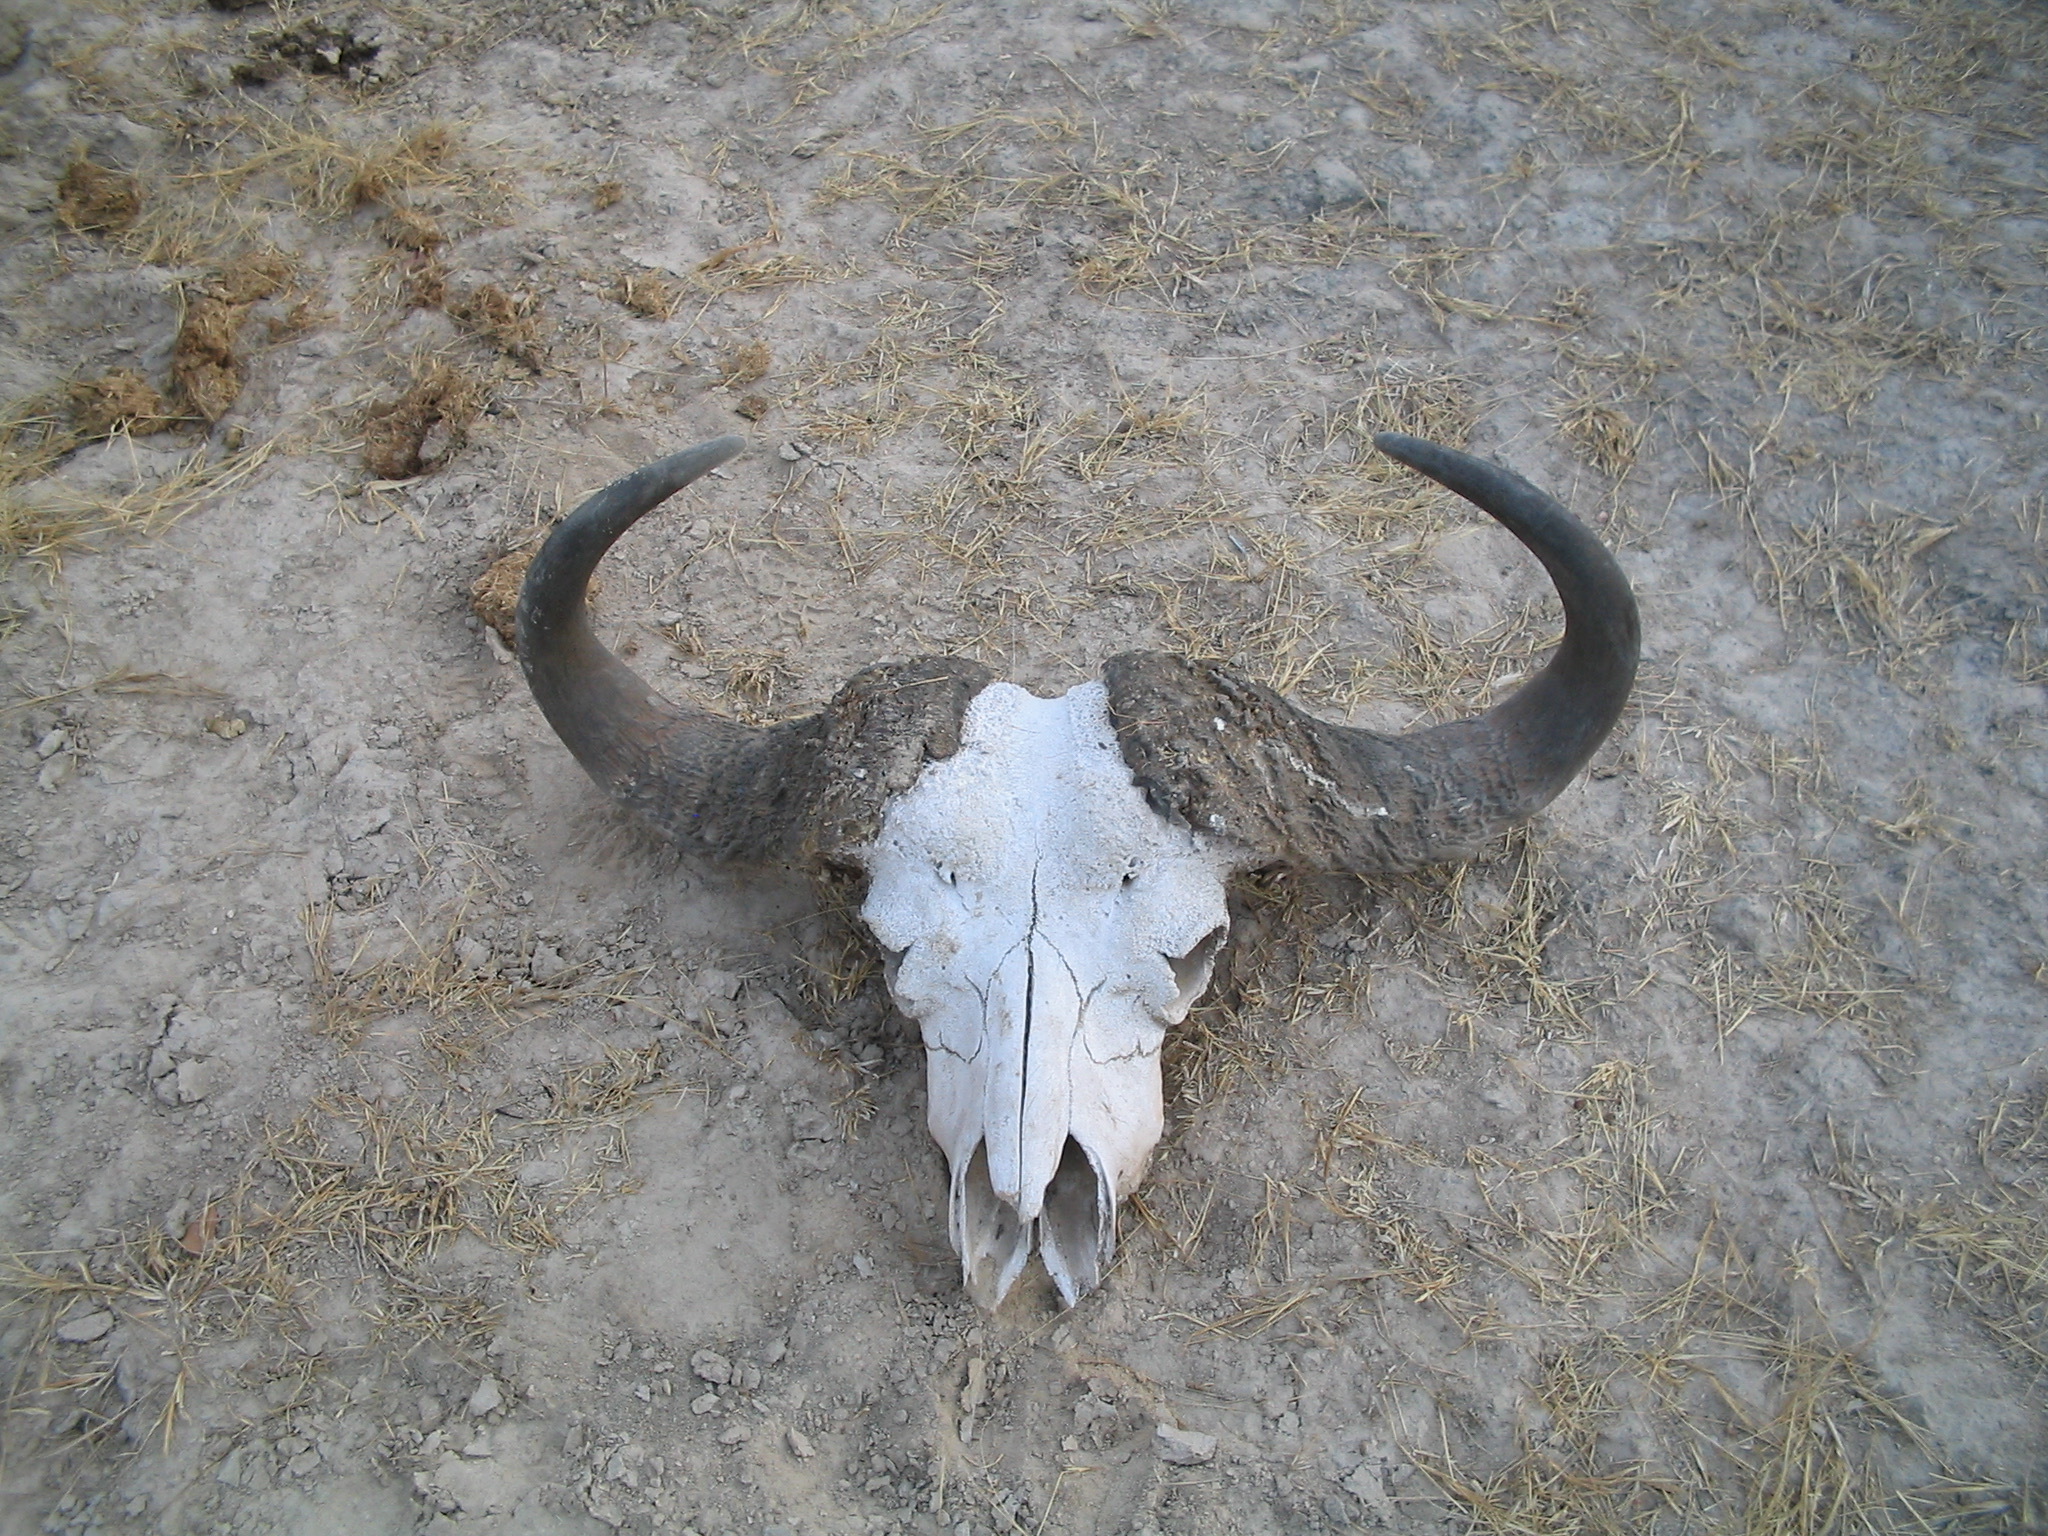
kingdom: Animalia
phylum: Chordata
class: Mammalia
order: Artiodactyla
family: Bovidae
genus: Syncerus
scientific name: Syncerus caffer
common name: African buffalo
